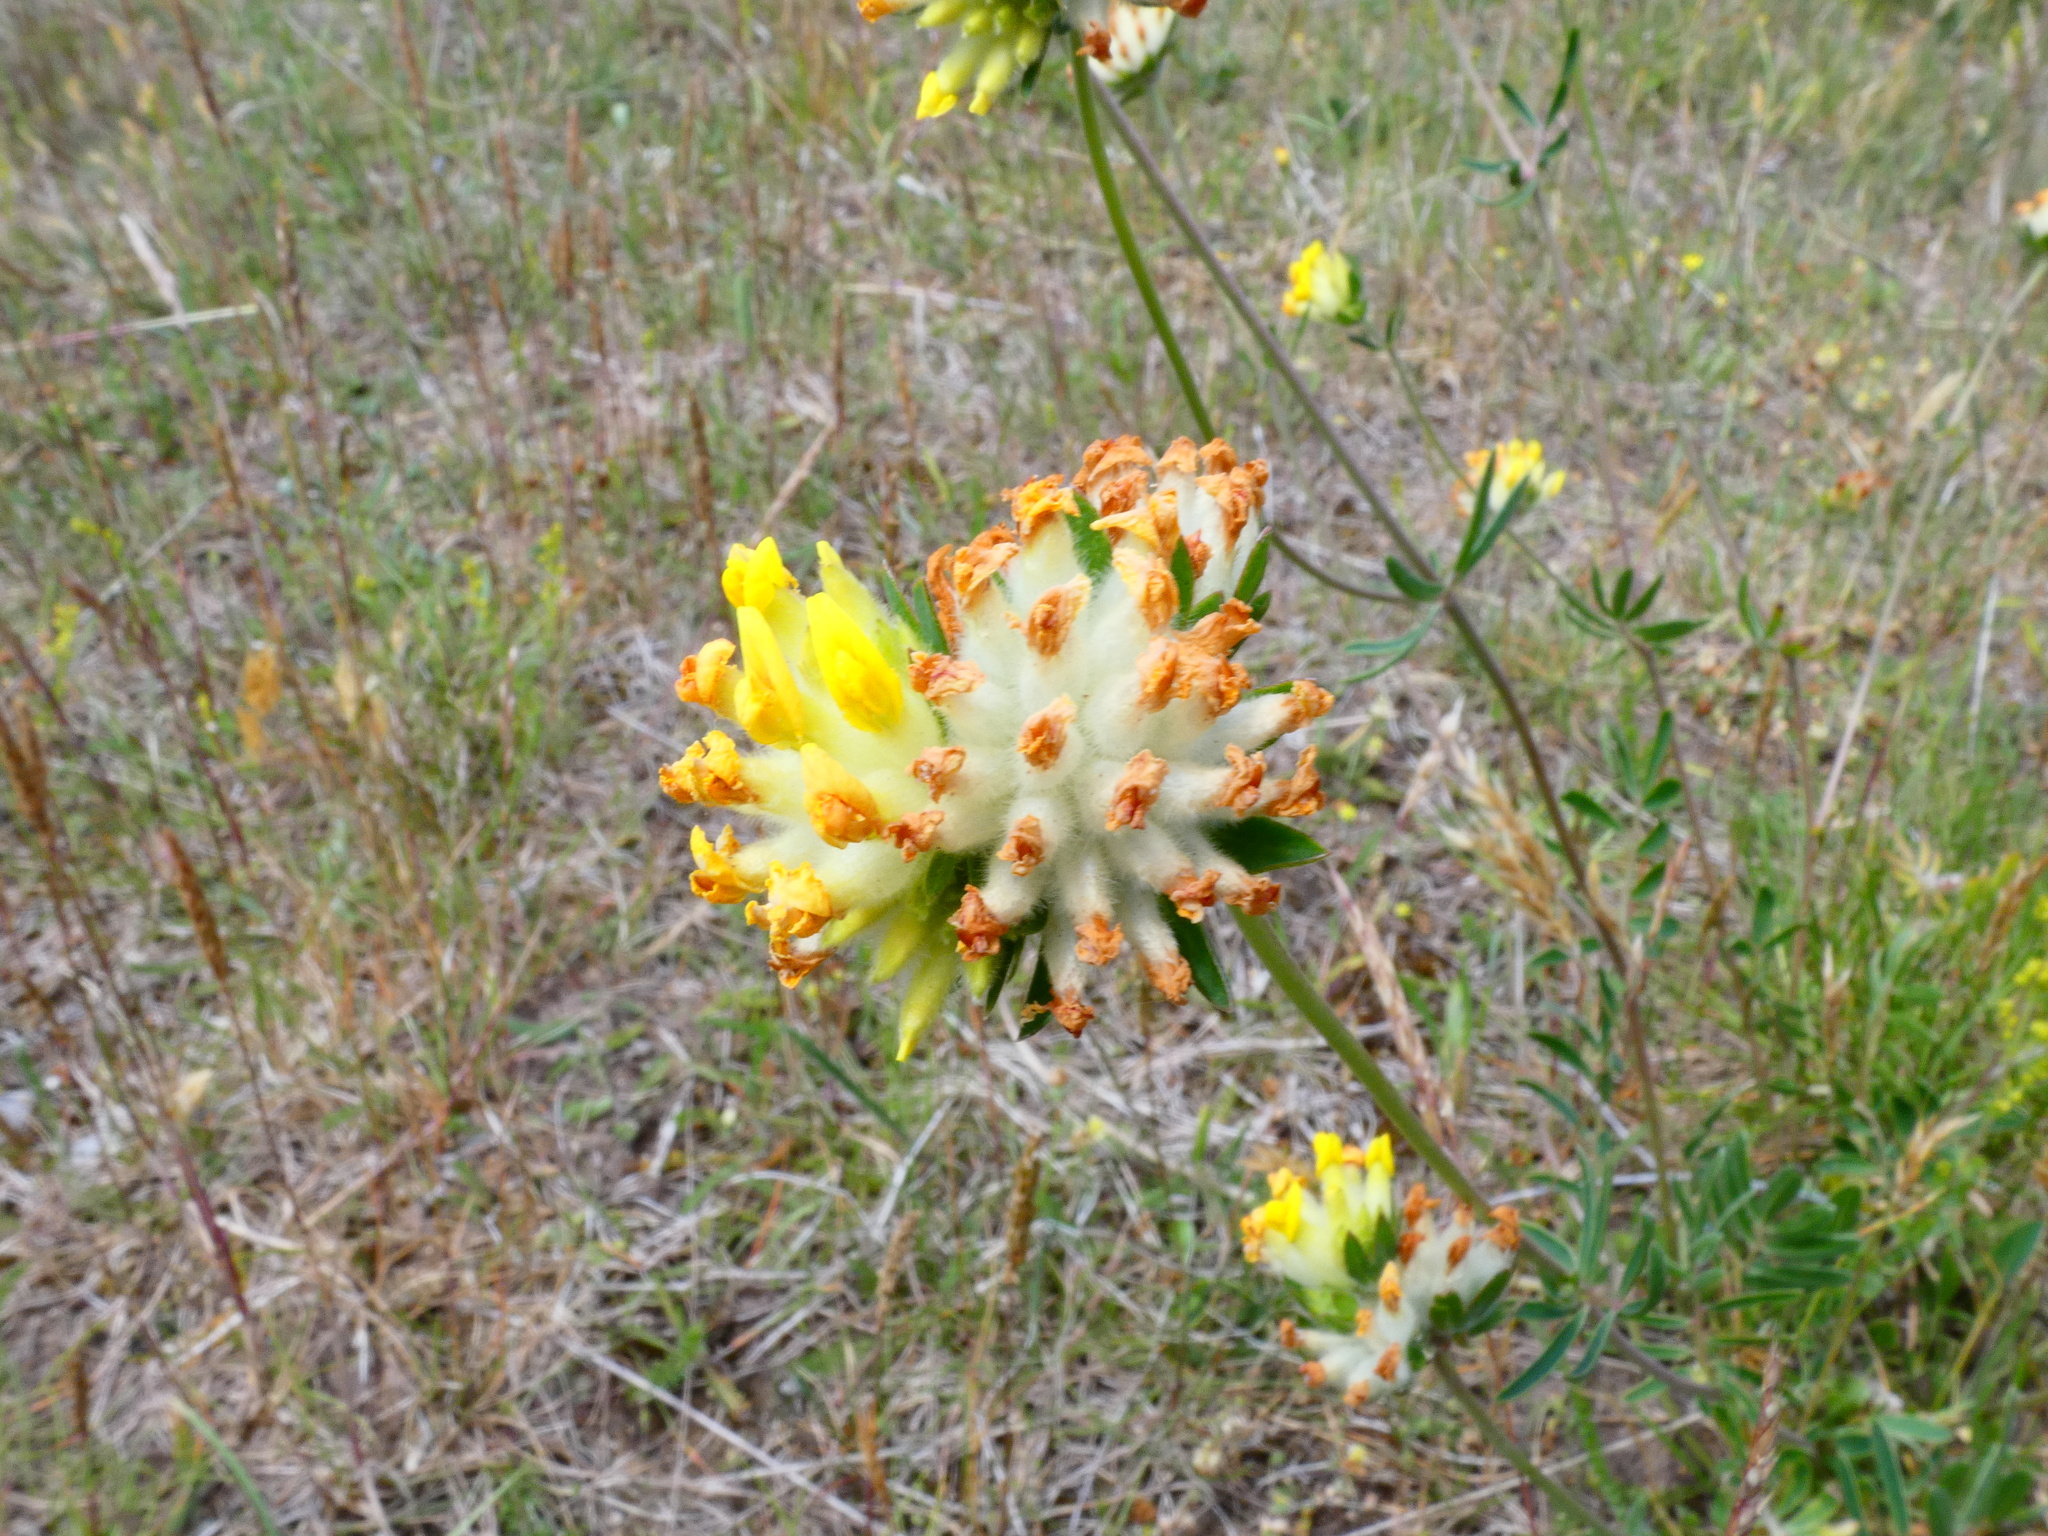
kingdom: Plantae
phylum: Tracheophyta
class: Magnoliopsida
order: Fabales
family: Fabaceae
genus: Anthyllis
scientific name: Anthyllis vulneraria
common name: Kidney vetch
